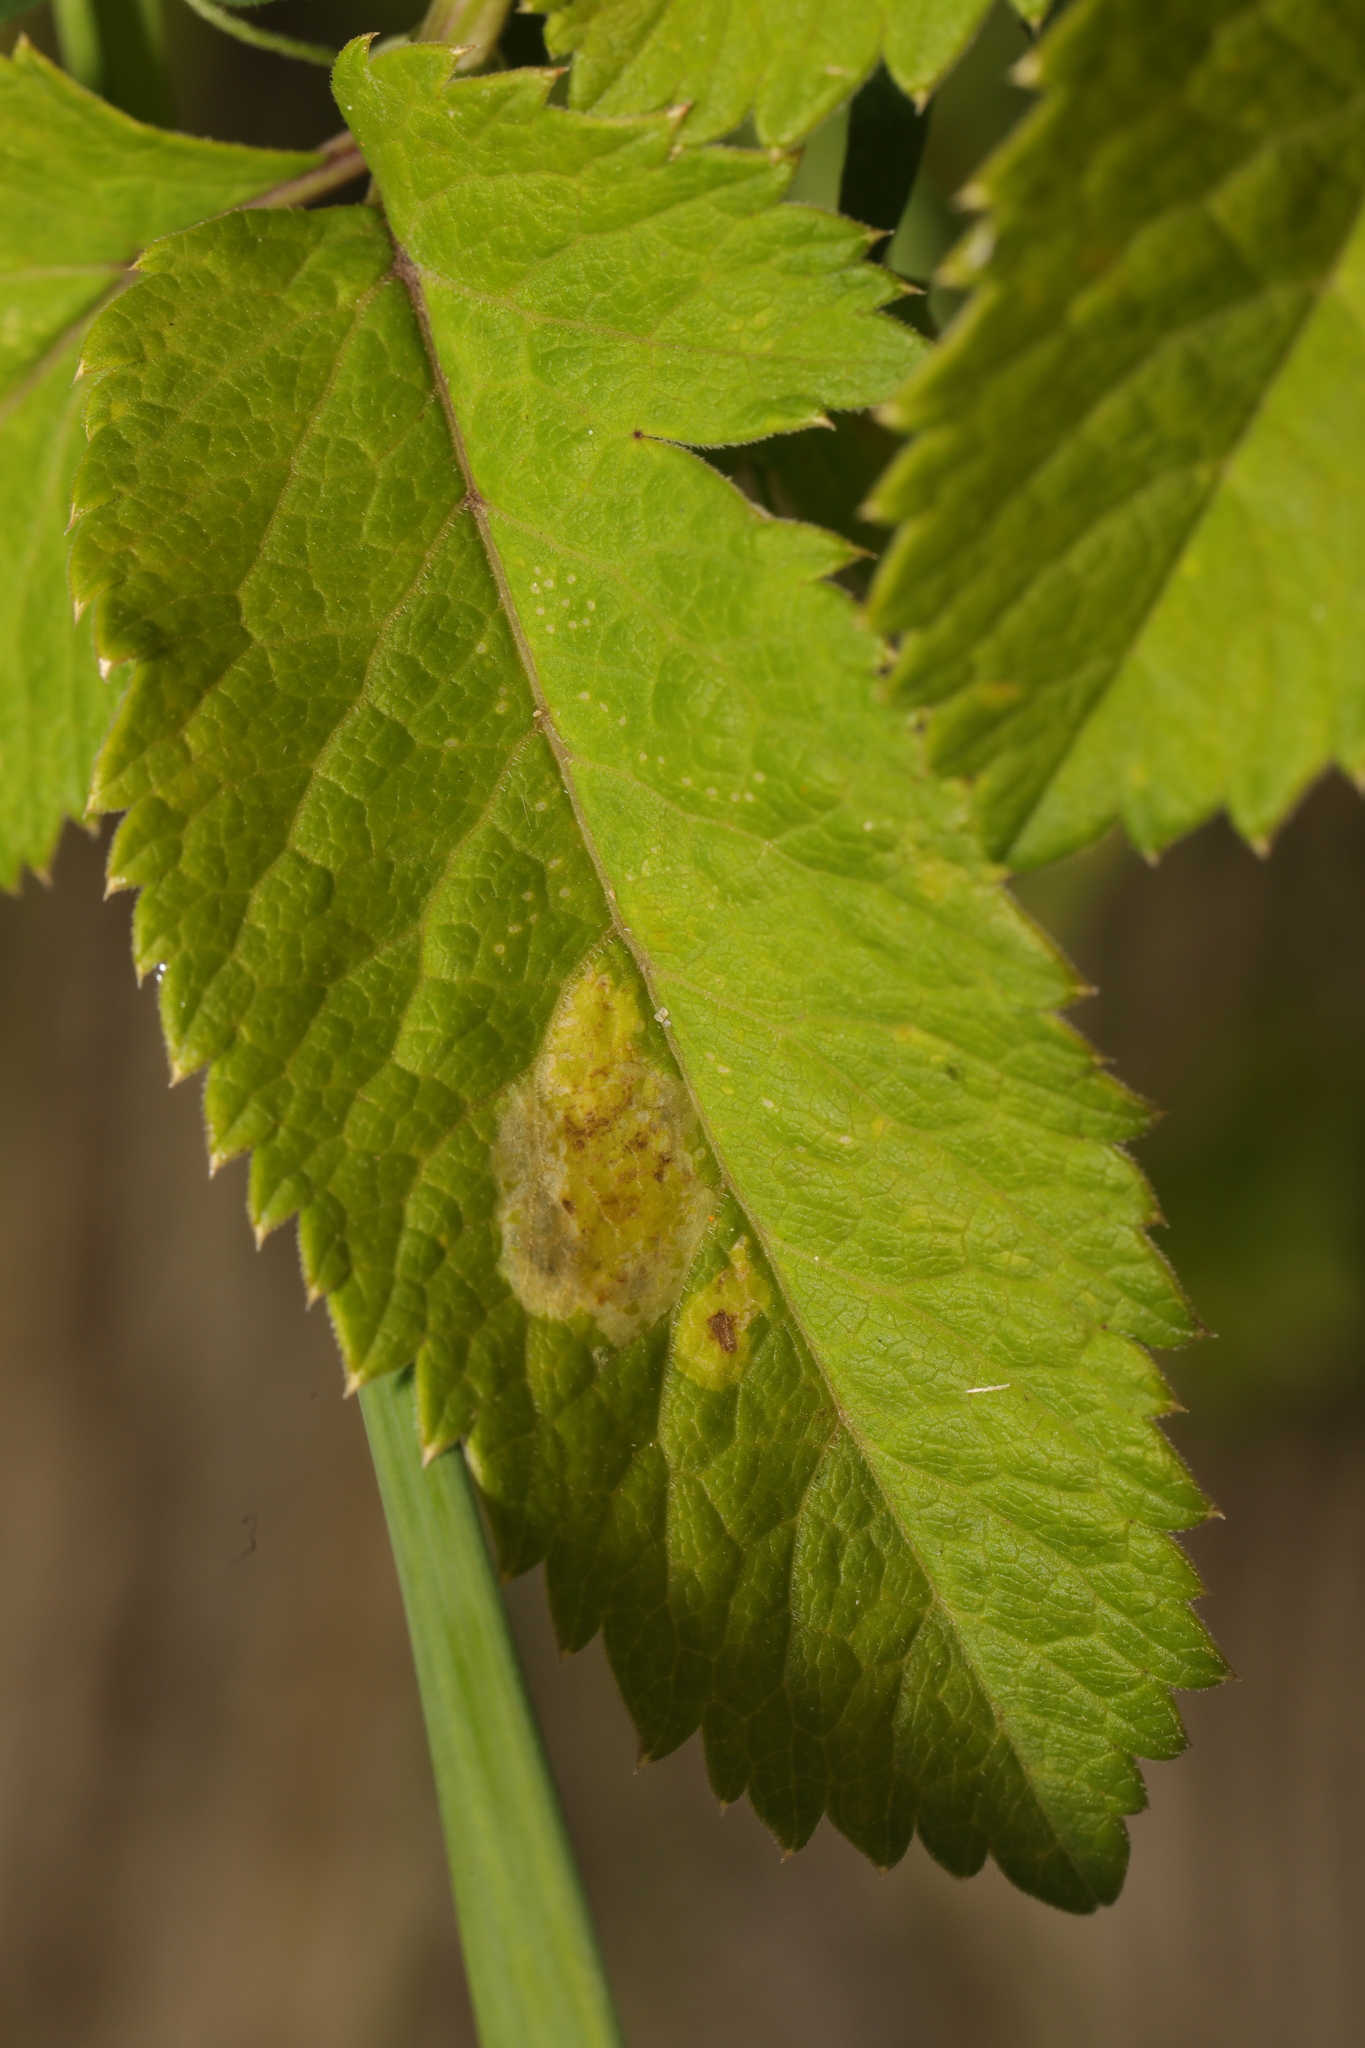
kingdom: Animalia
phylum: Arthropoda
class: Insecta
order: Diptera
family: Agromyzidae
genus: Phytomyza
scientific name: Phytomyza angelicae
